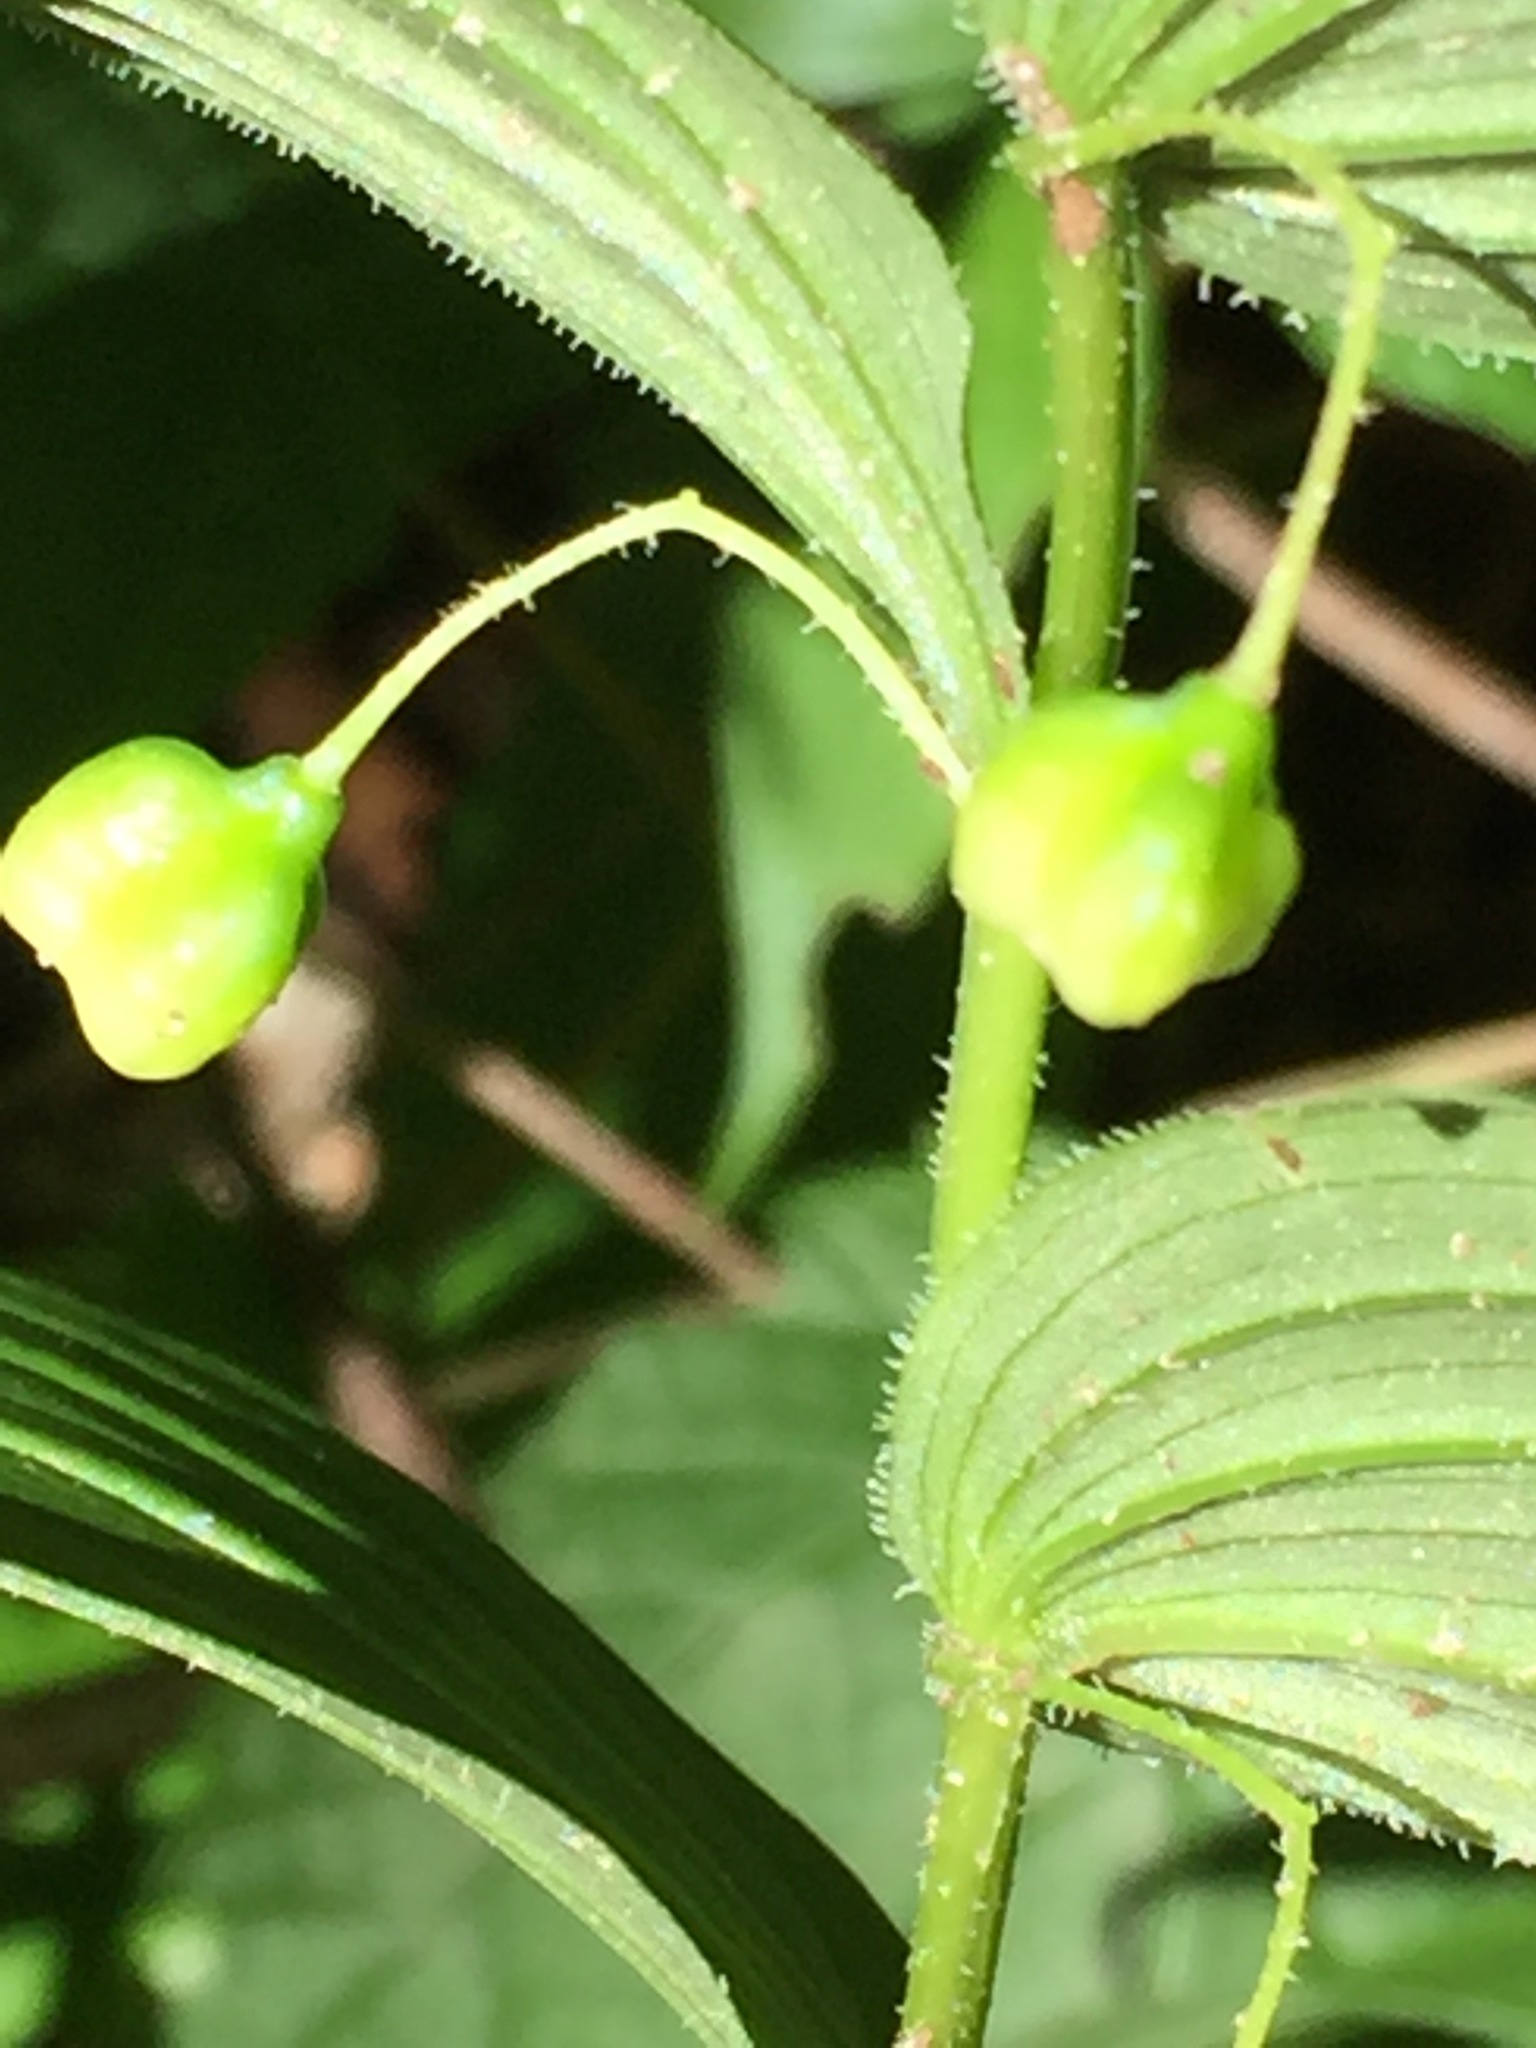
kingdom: Plantae
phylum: Tracheophyta
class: Liliopsida
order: Liliales
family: Liliaceae
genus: Streptopus
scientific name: Streptopus lanceolatus
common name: Rose mandarin
